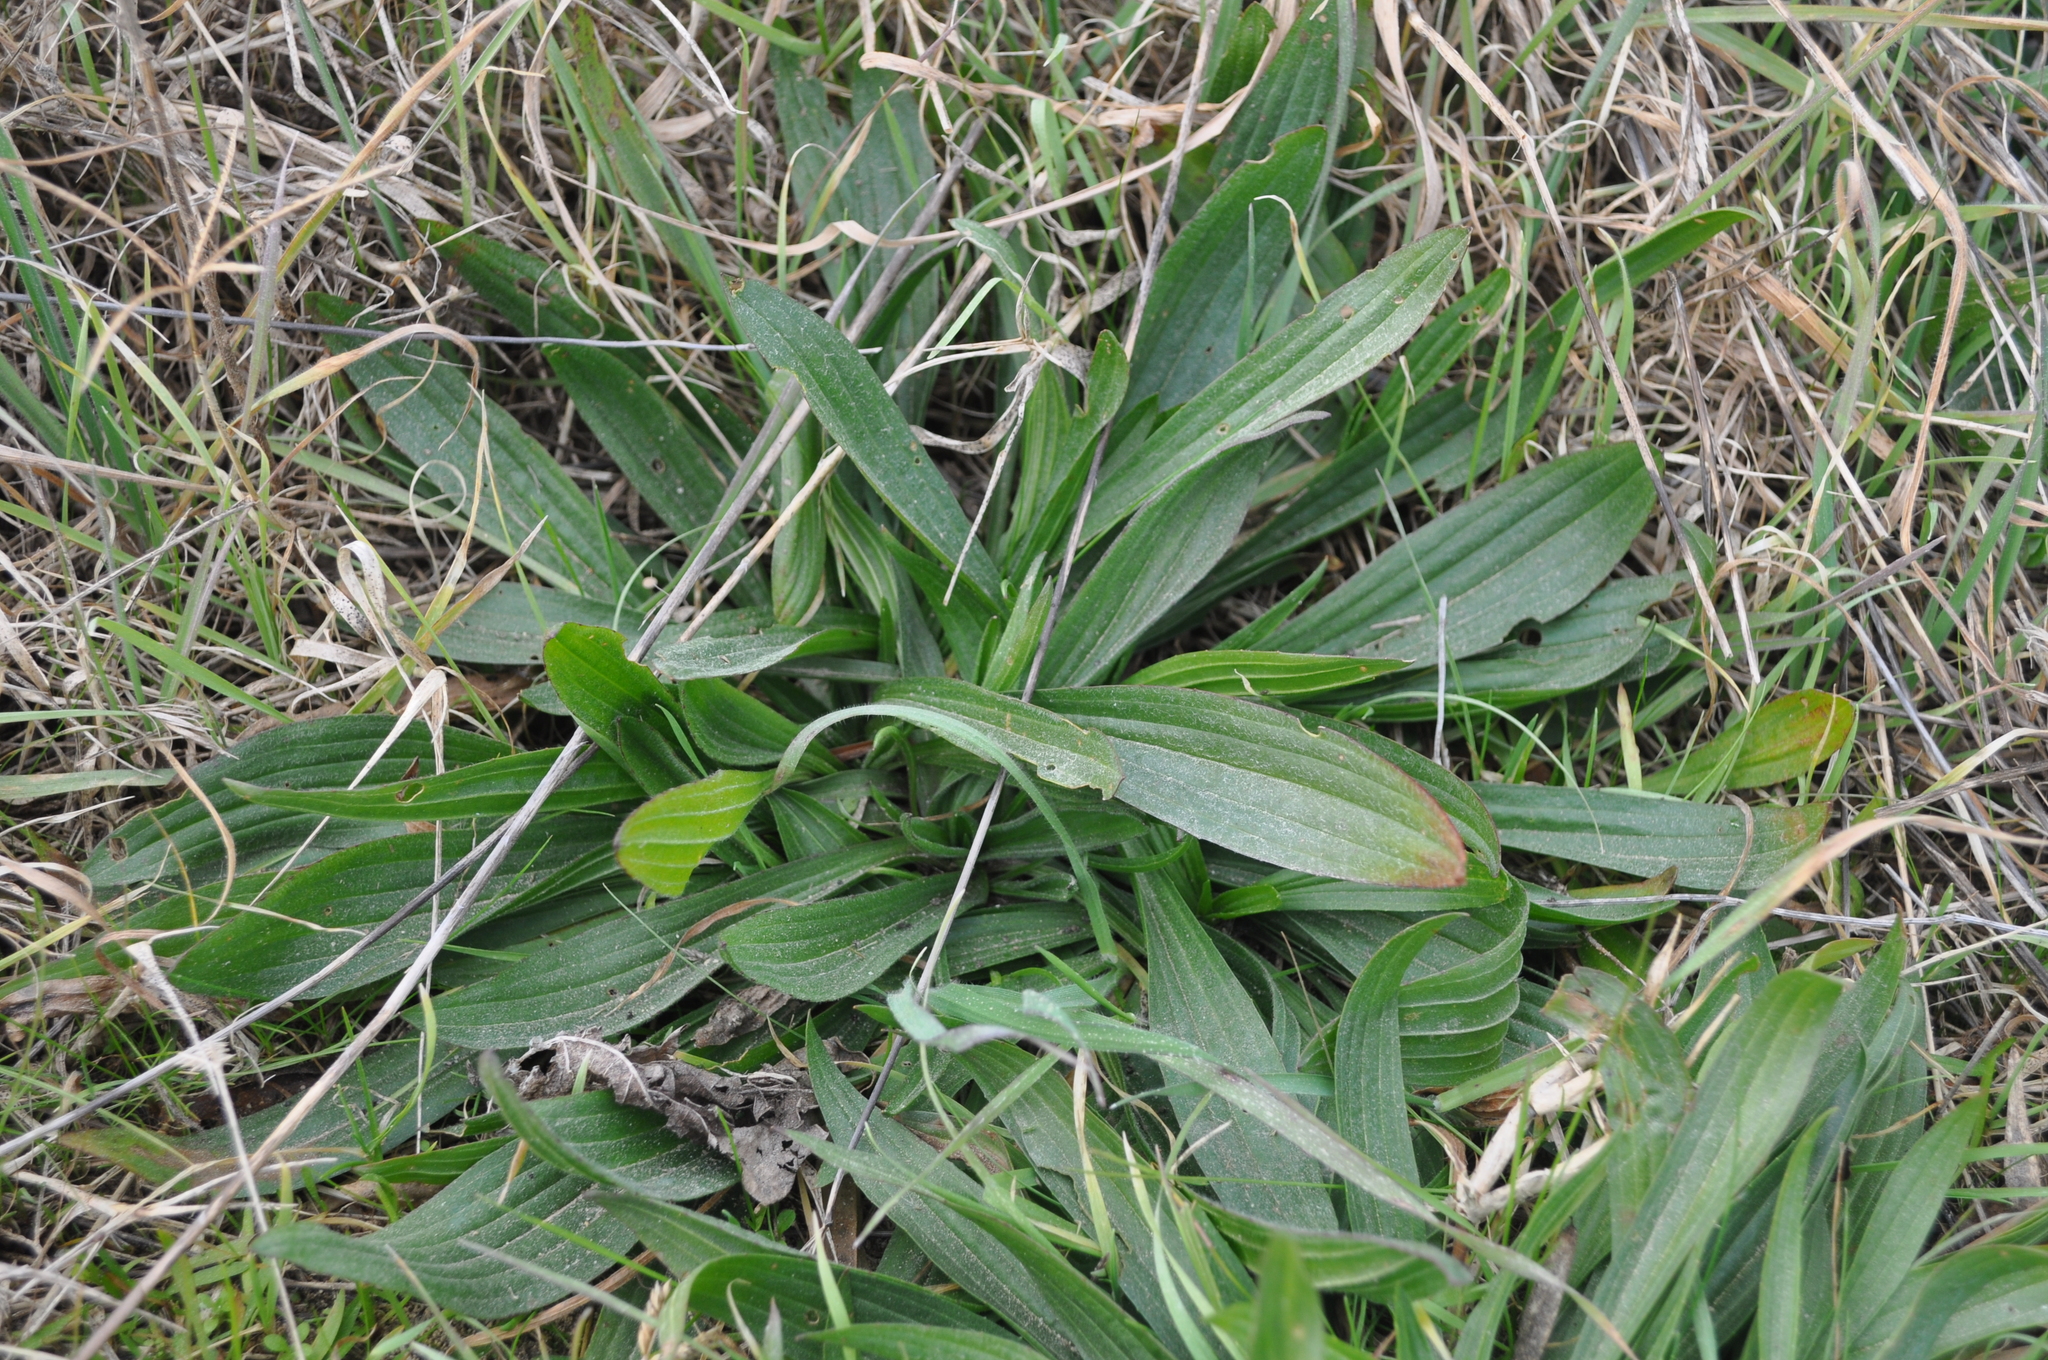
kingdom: Plantae
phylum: Tracheophyta
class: Magnoliopsida
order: Lamiales
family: Plantaginaceae
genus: Plantago
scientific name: Plantago lanceolata
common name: Ribwort plantain
